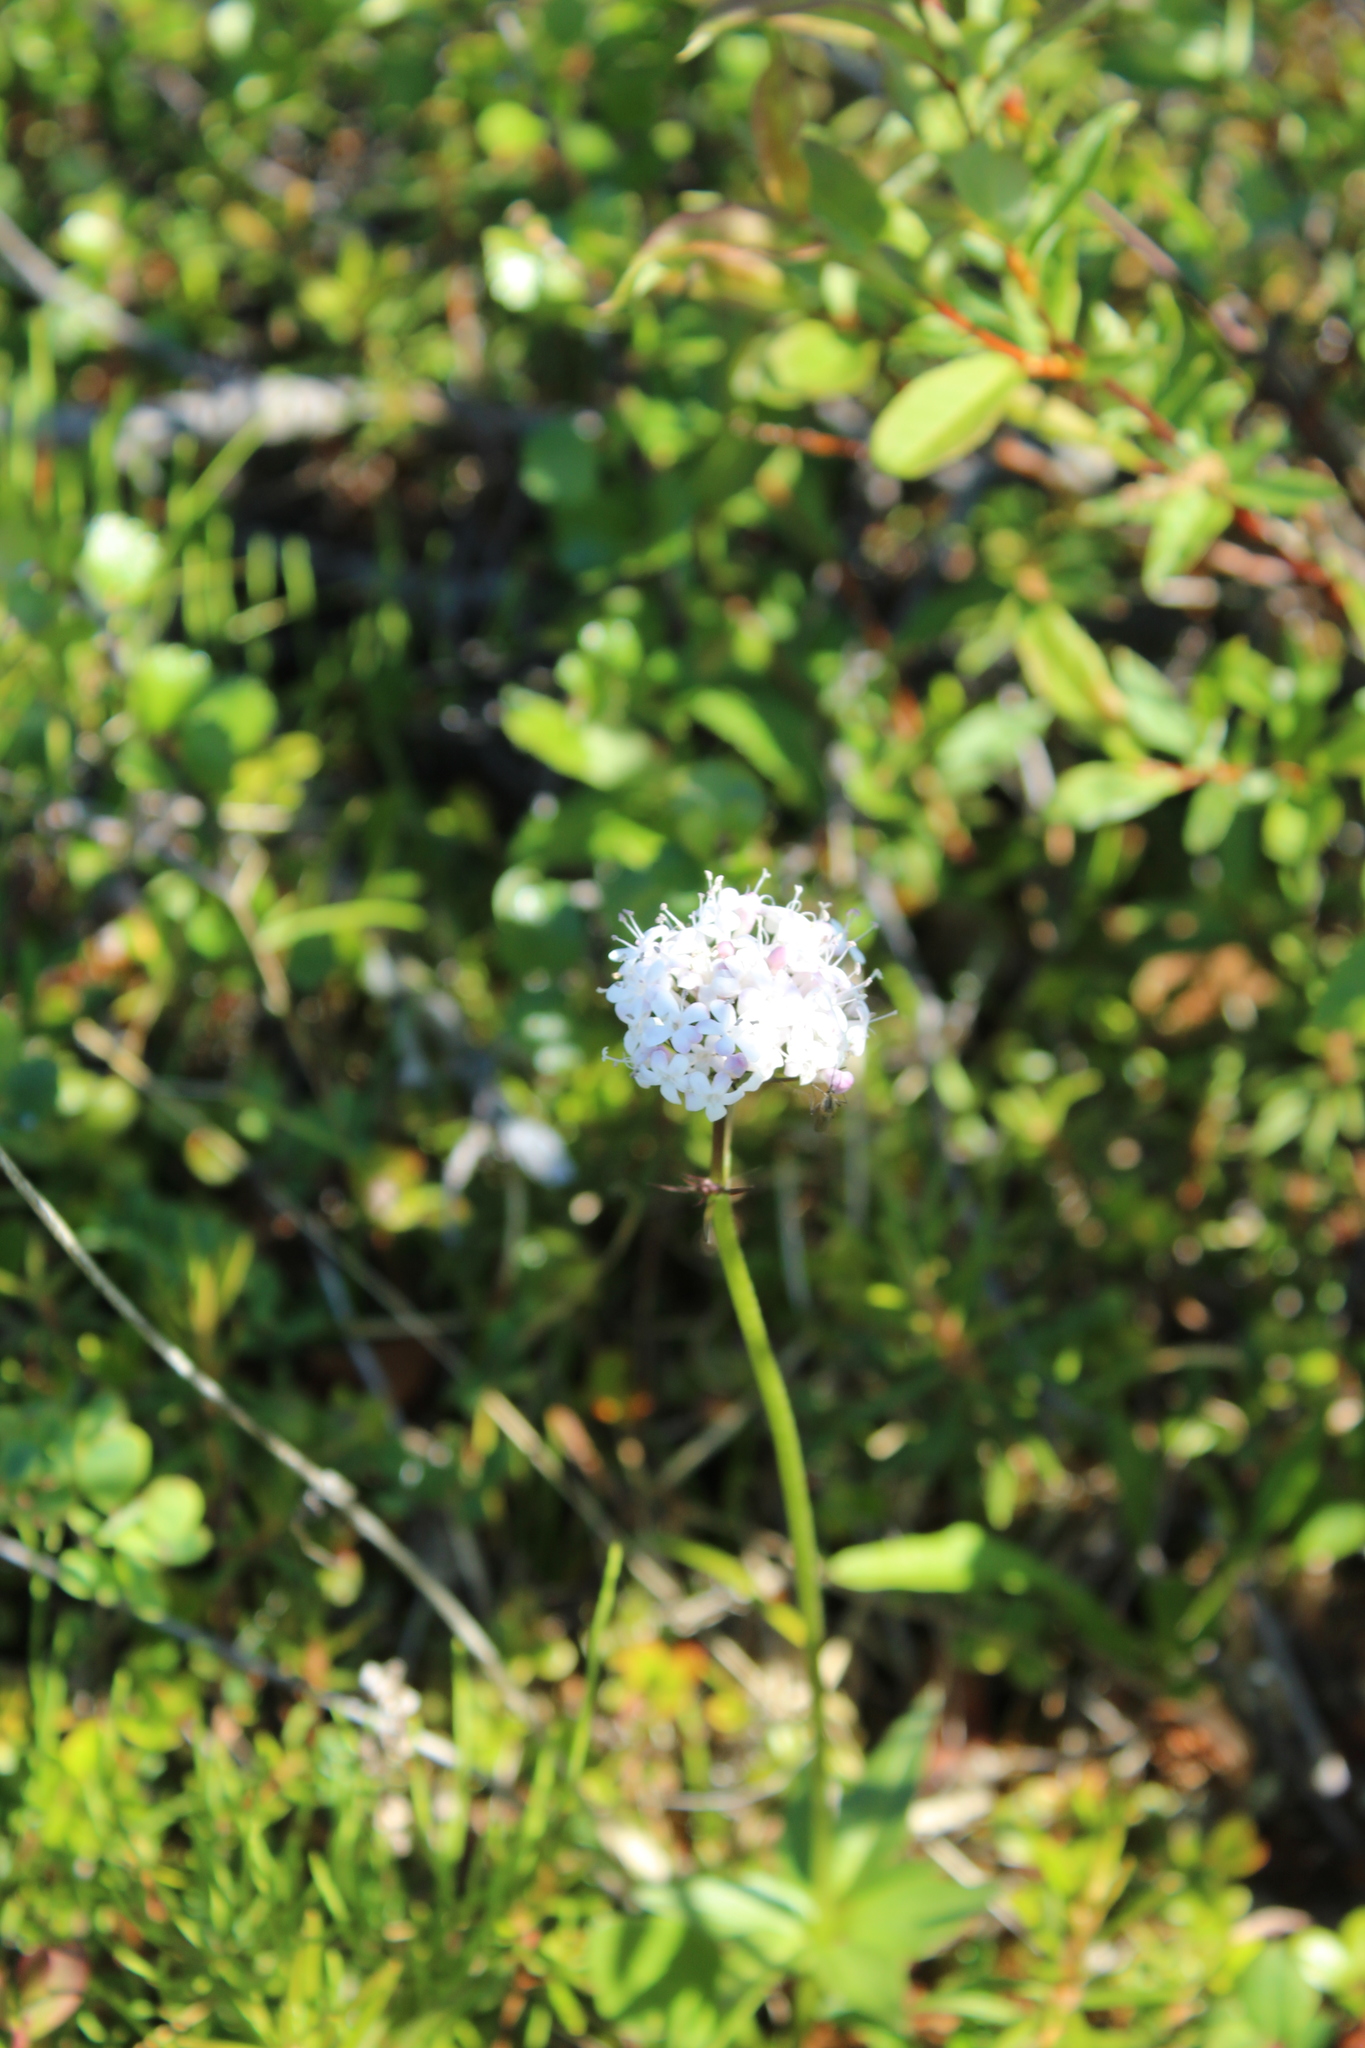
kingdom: Plantae
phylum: Tracheophyta
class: Magnoliopsida
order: Dipsacales
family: Caprifoliaceae
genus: Valeriana
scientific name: Valeriana capitata
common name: Capitate valerian
